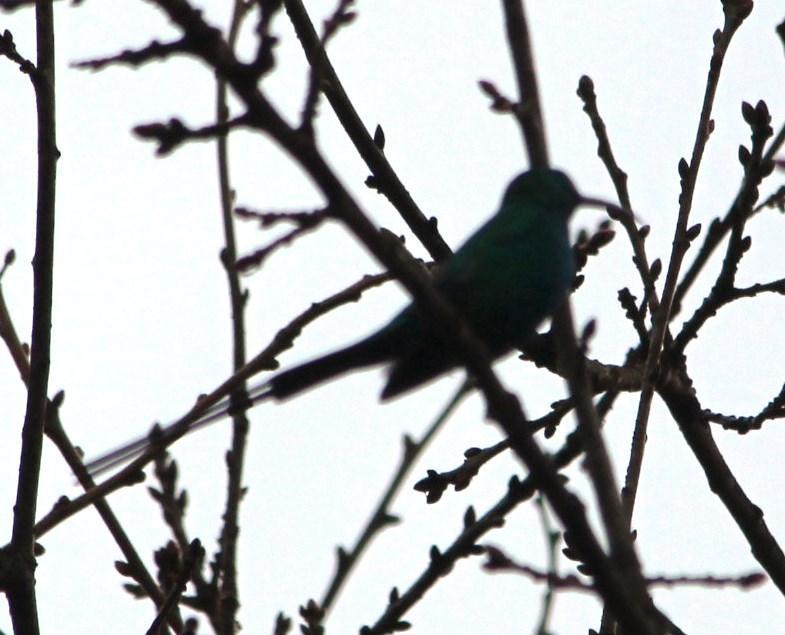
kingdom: Animalia
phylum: Chordata
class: Aves
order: Passeriformes
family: Nectariniidae
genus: Nectarinia
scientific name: Nectarinia famosa
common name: Malachite sunbird
